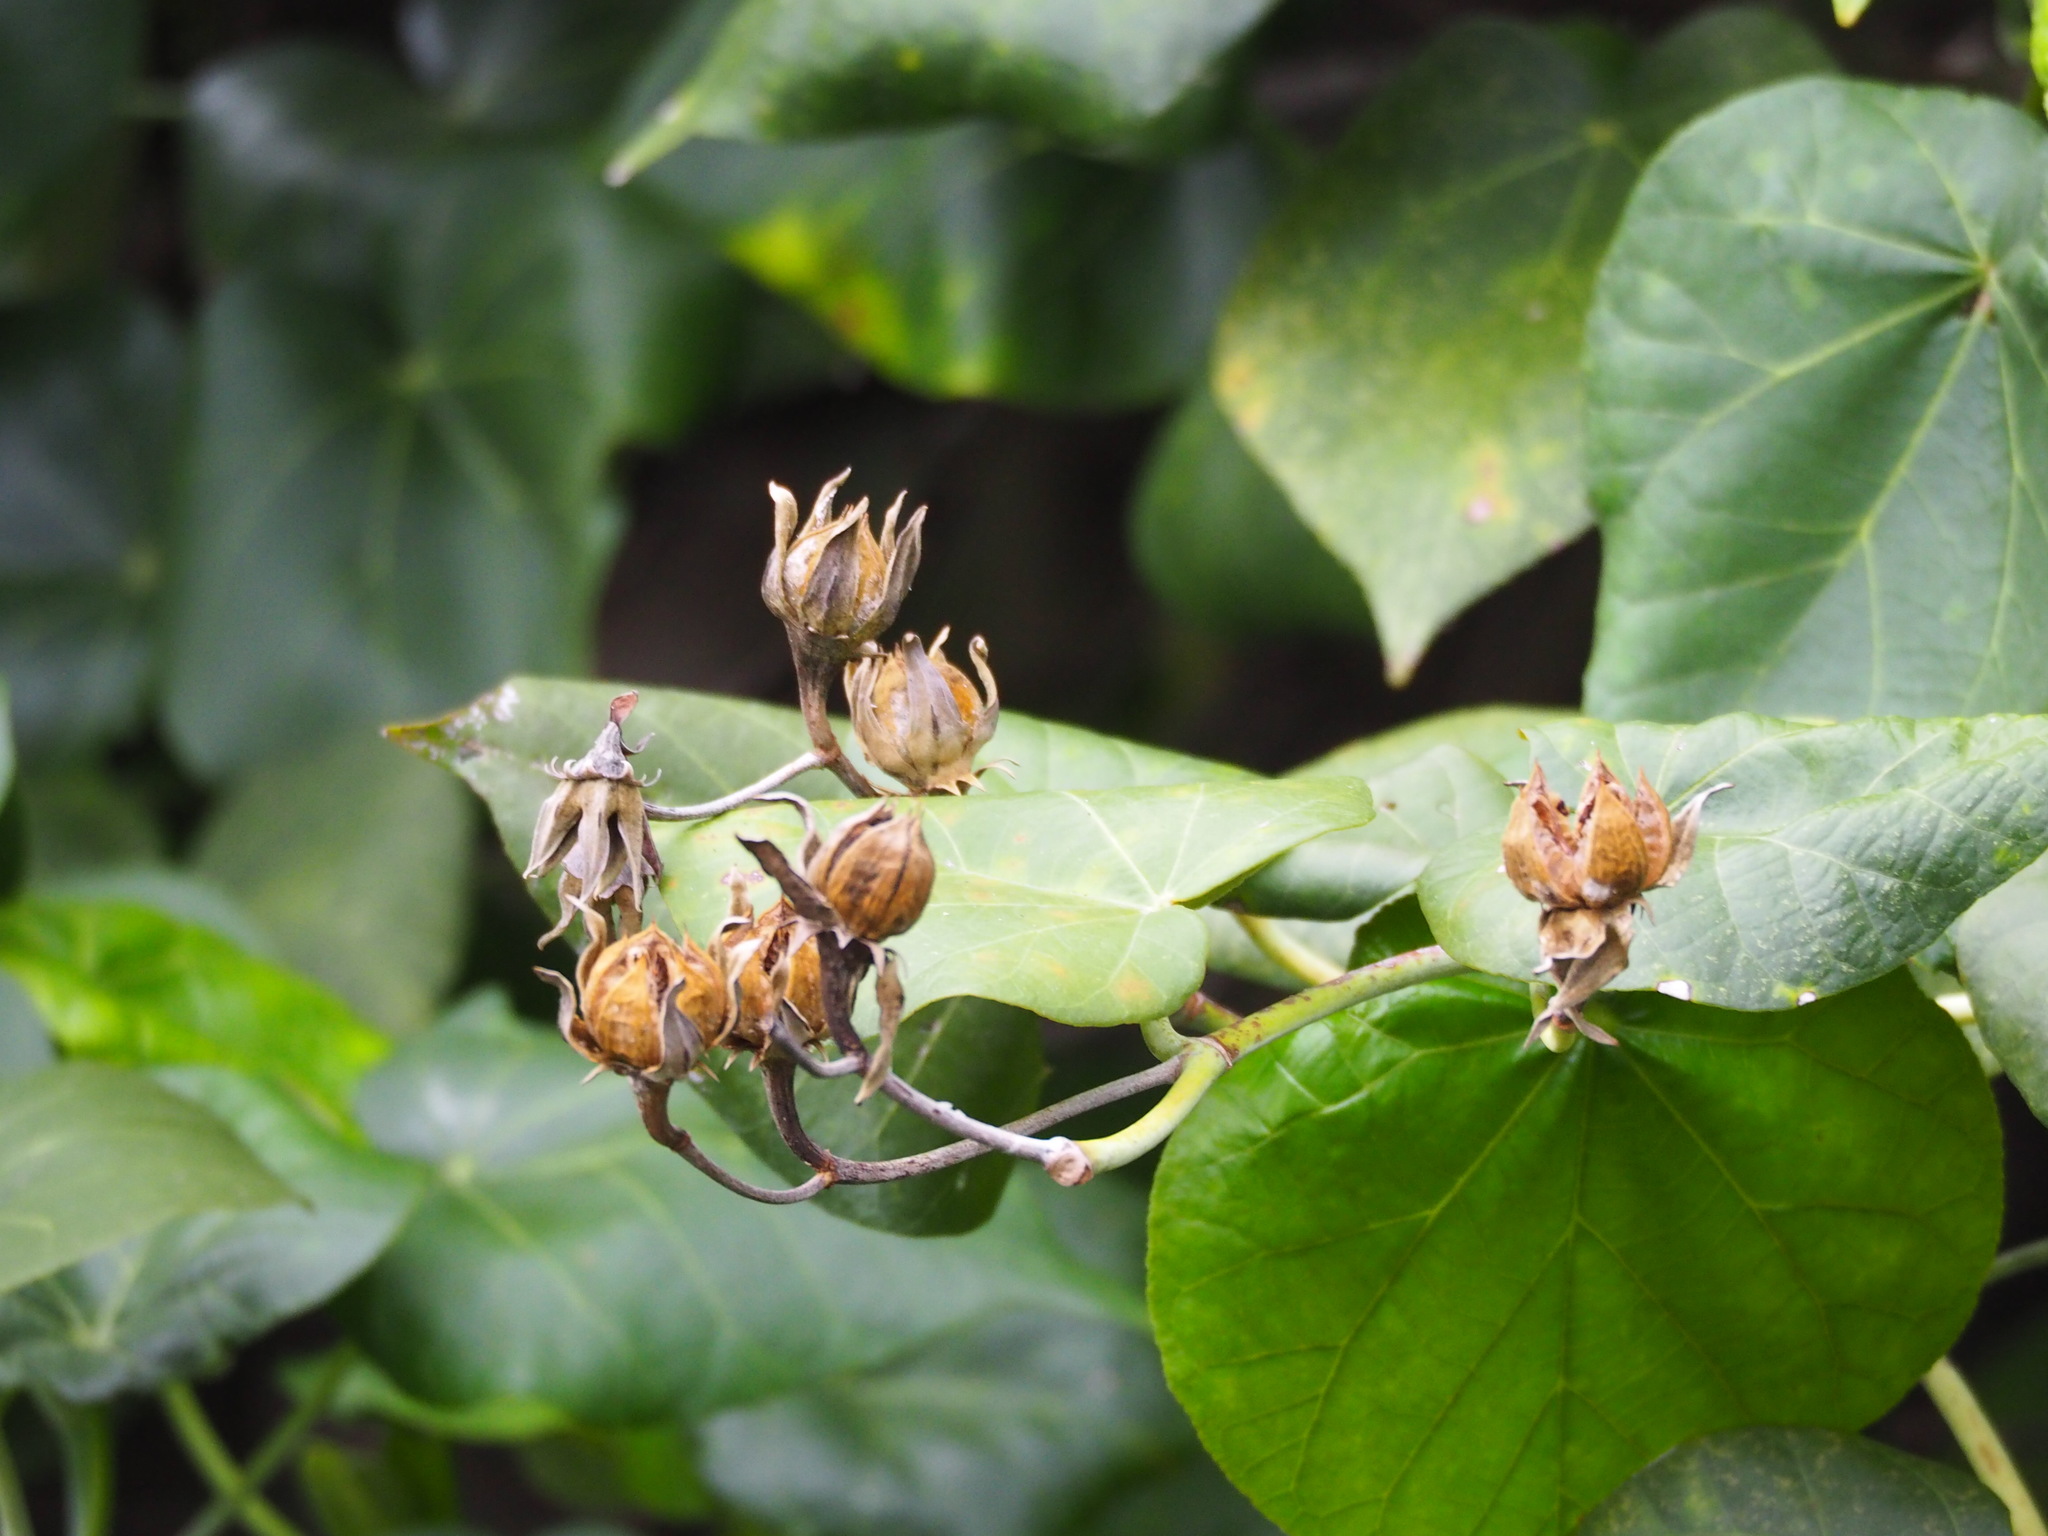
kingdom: Plantae
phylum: Tracheophyta
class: Magnoliopsida
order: Malvales
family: Malvaceae
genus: Talipariti
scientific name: Talipariti tiliaceum
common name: Sea hibiscus
